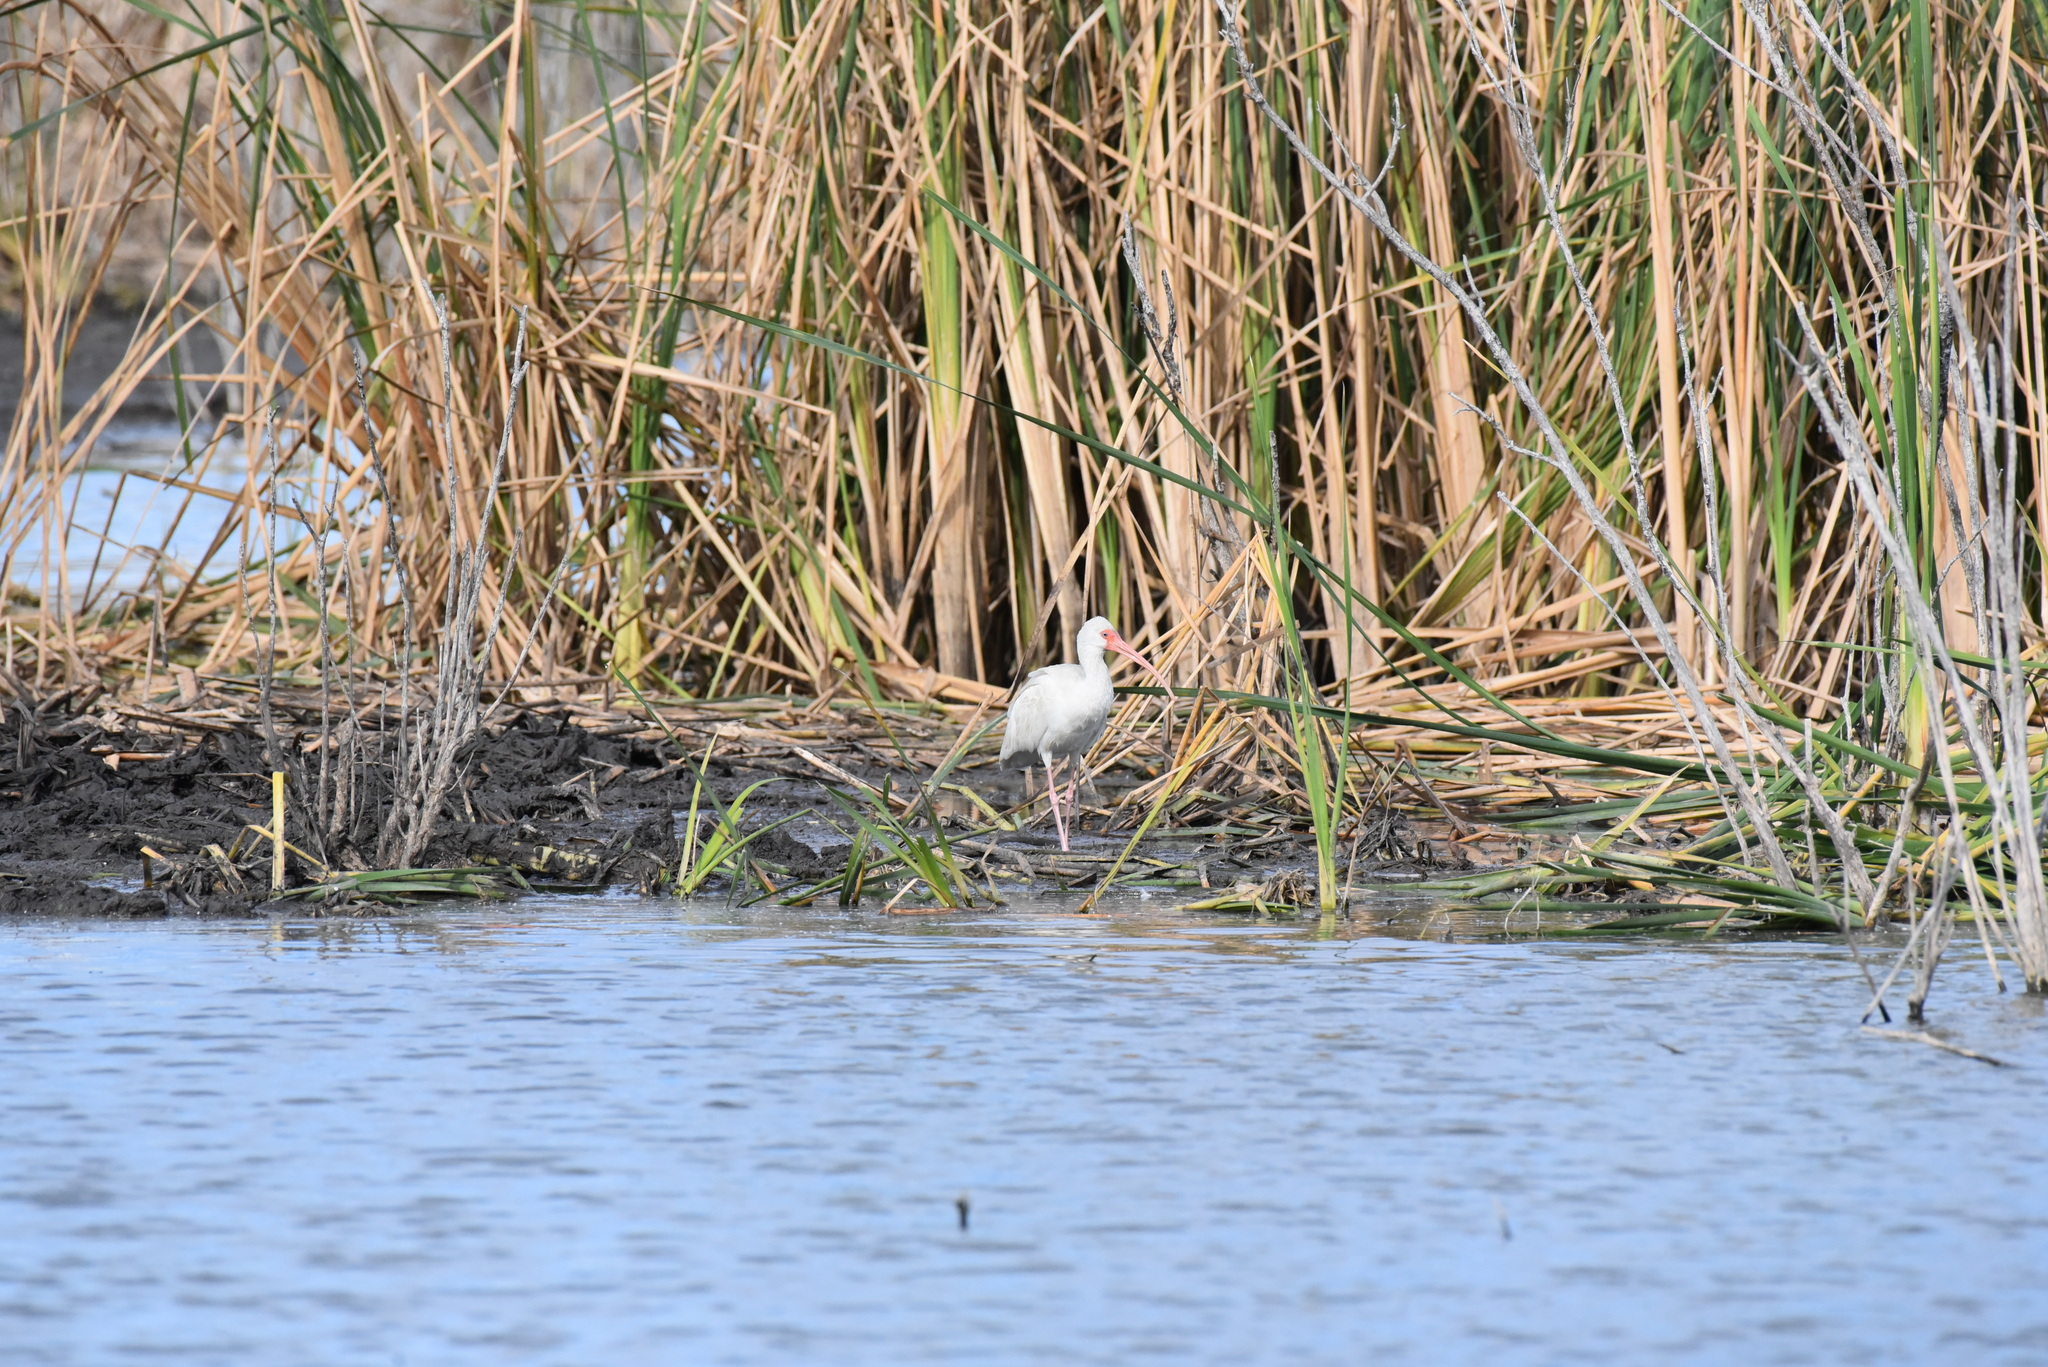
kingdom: Animalia
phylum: Chordata
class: Aves
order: Pelecaniformes
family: Threskiornithidae
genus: Eudocimus
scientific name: Eudocimus albus
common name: White ibis
